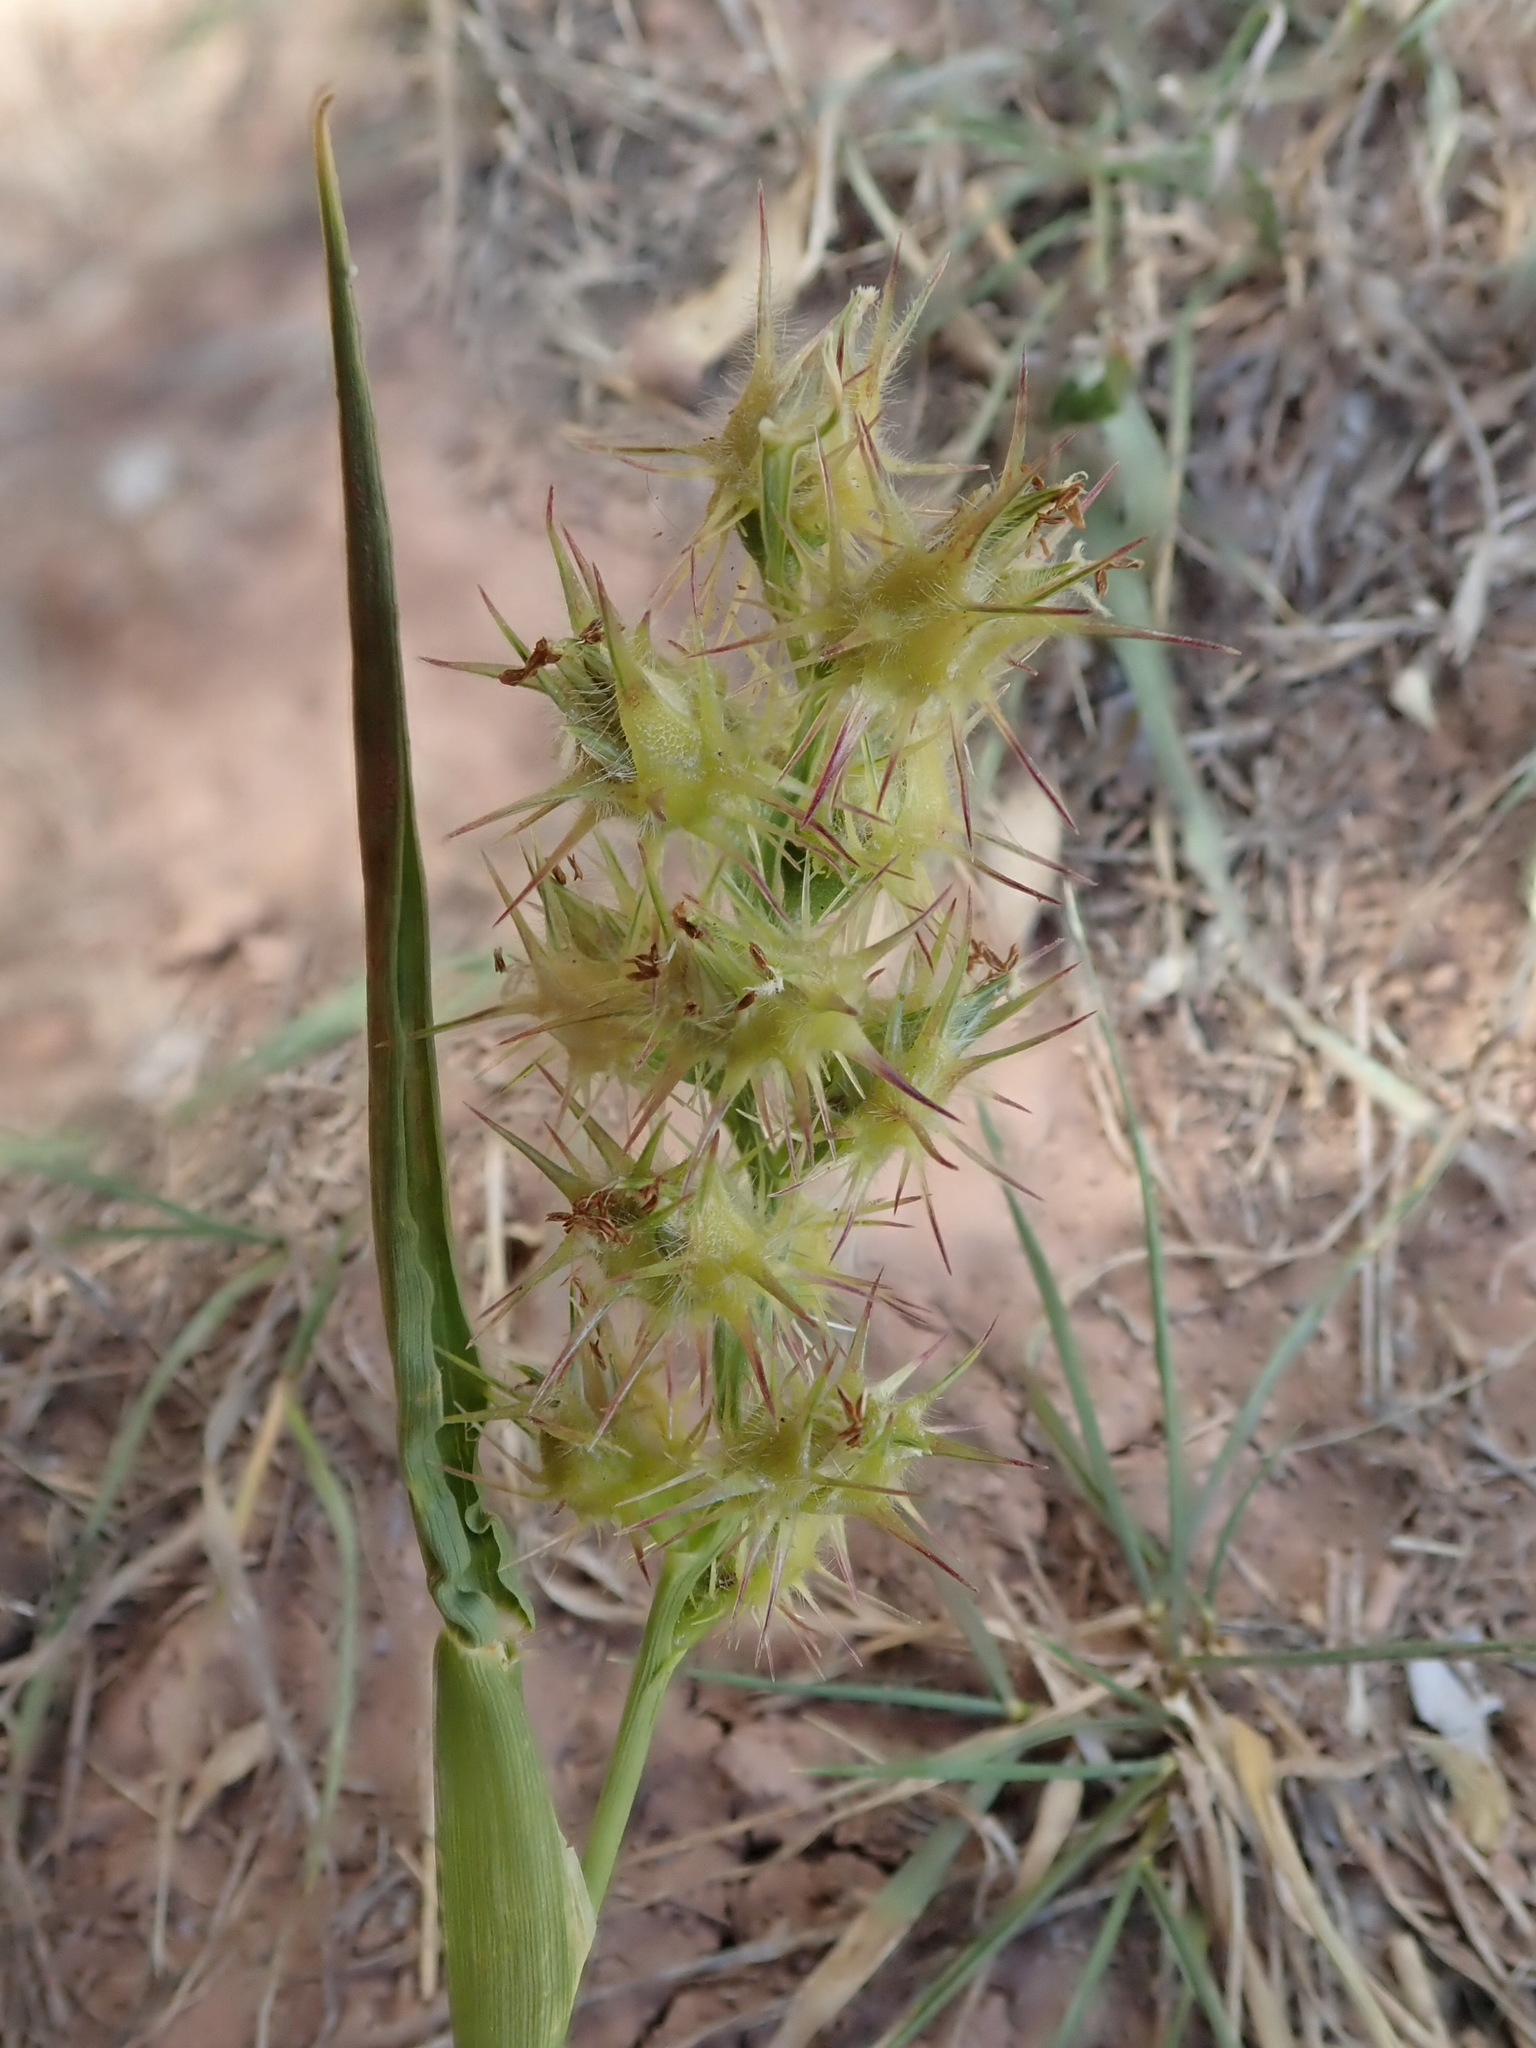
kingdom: Plantae
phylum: Tracheophyta
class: Liliopsida
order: Poales
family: Poaceae
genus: Cenchrus
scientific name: Cenchrus longispinus
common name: Mat sandbur
